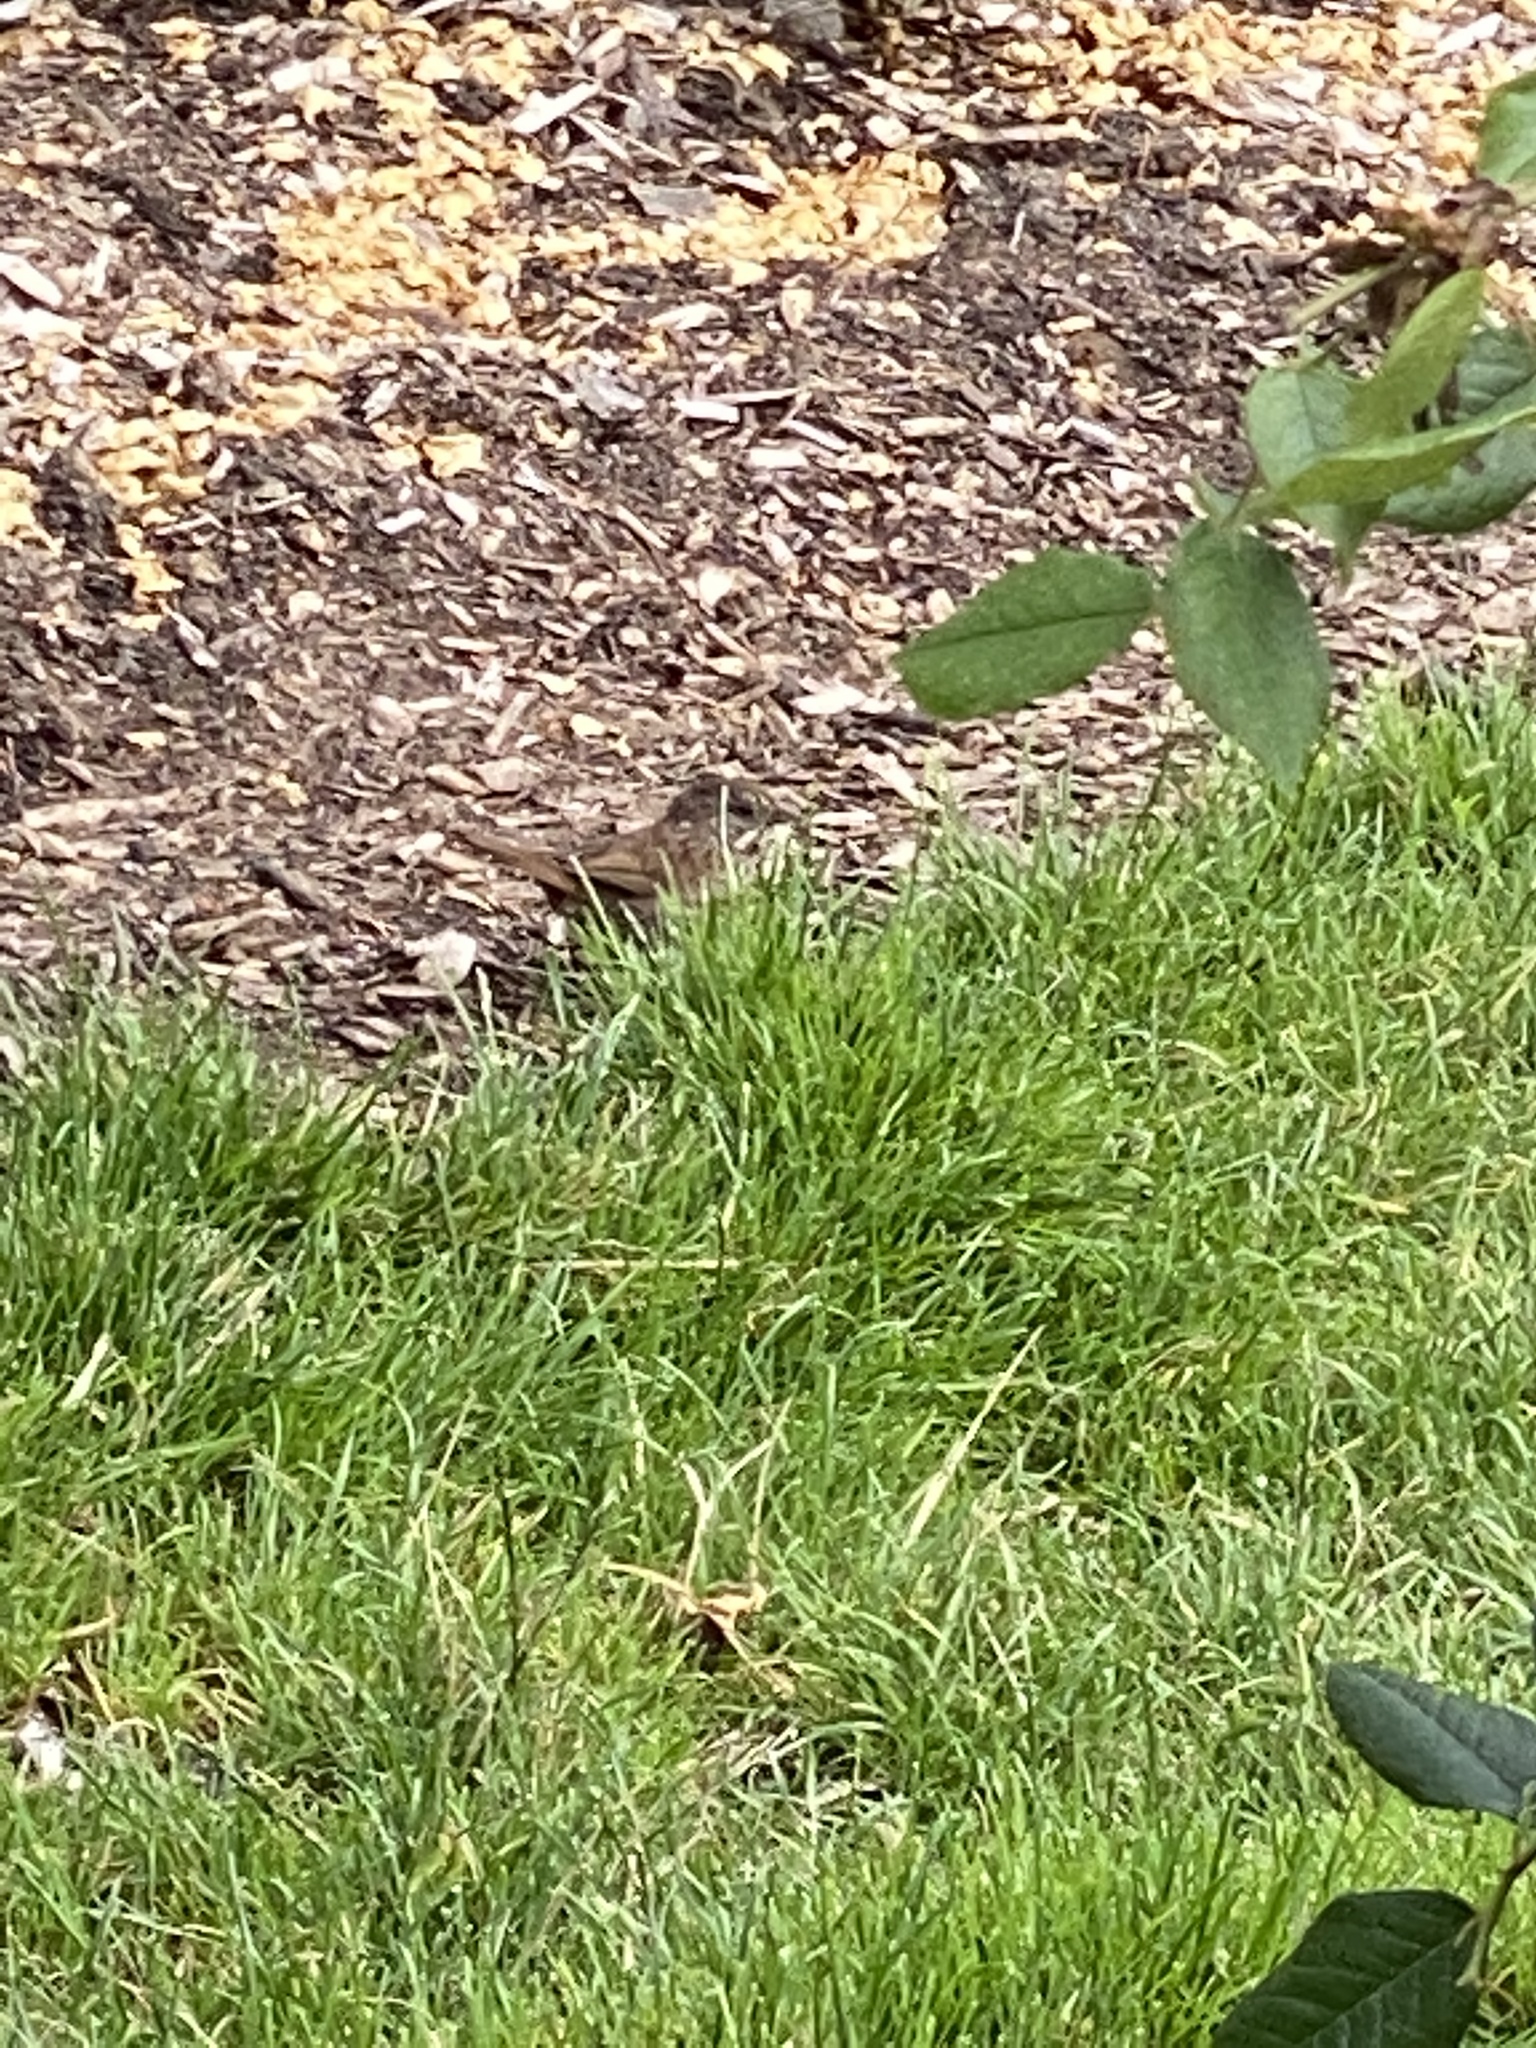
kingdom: Animalia
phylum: Chordata
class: Aves
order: Passeriformes
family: Passerellidae
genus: Melospiza
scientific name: Melospiza melodia
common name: Song sparrow
